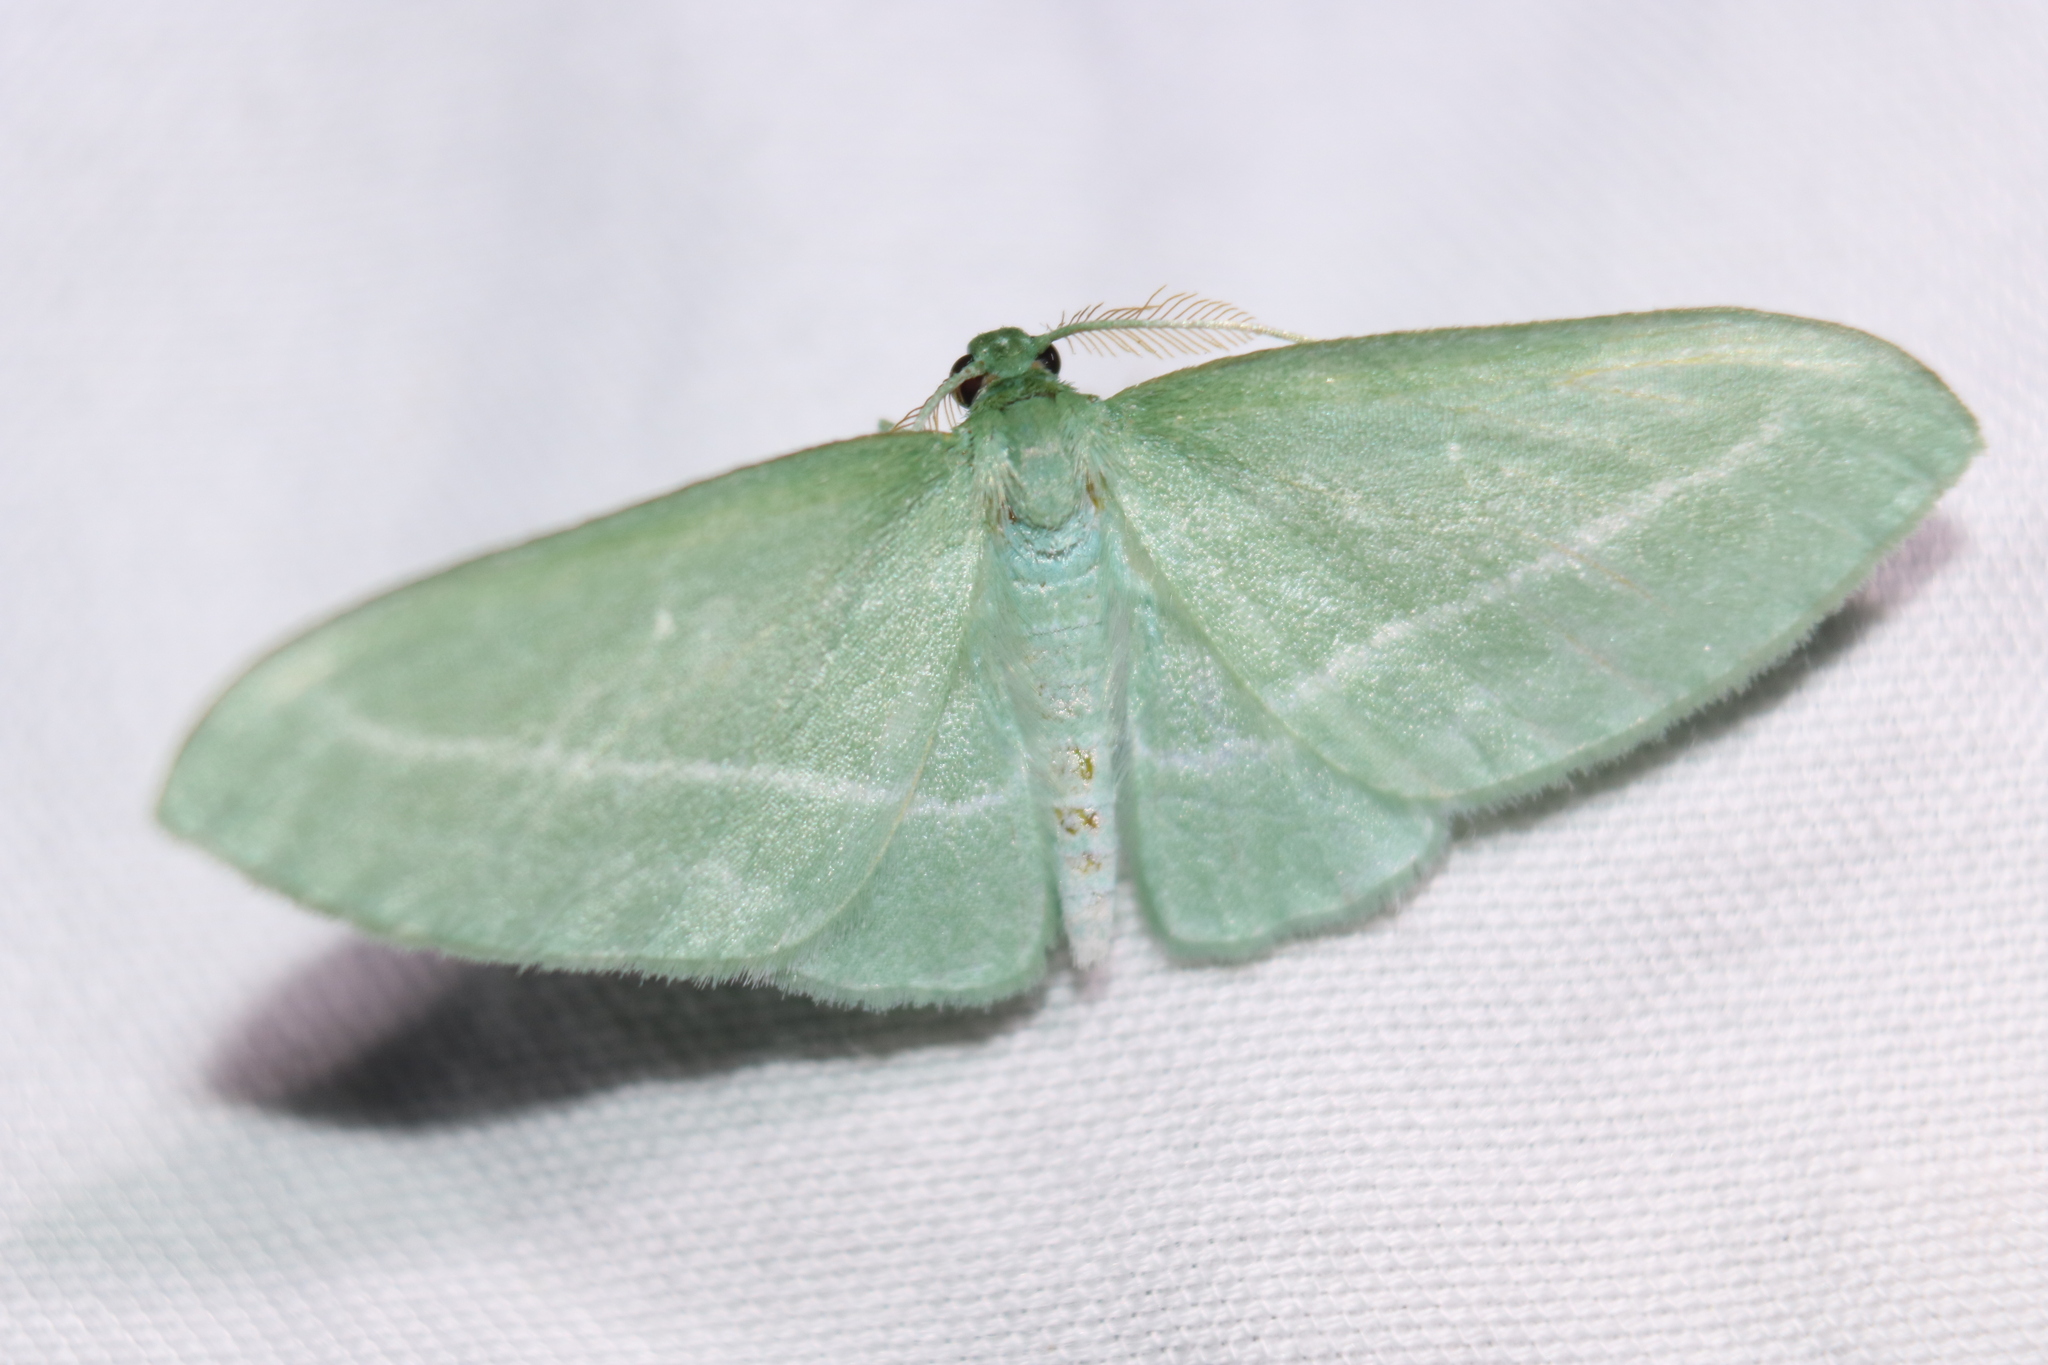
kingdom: Animalia
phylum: Arthropoda
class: Insecta
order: Lepidoptera
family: Geometridae
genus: Dyspteris
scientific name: Dyspteris abortivaria
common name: Bad-wing
